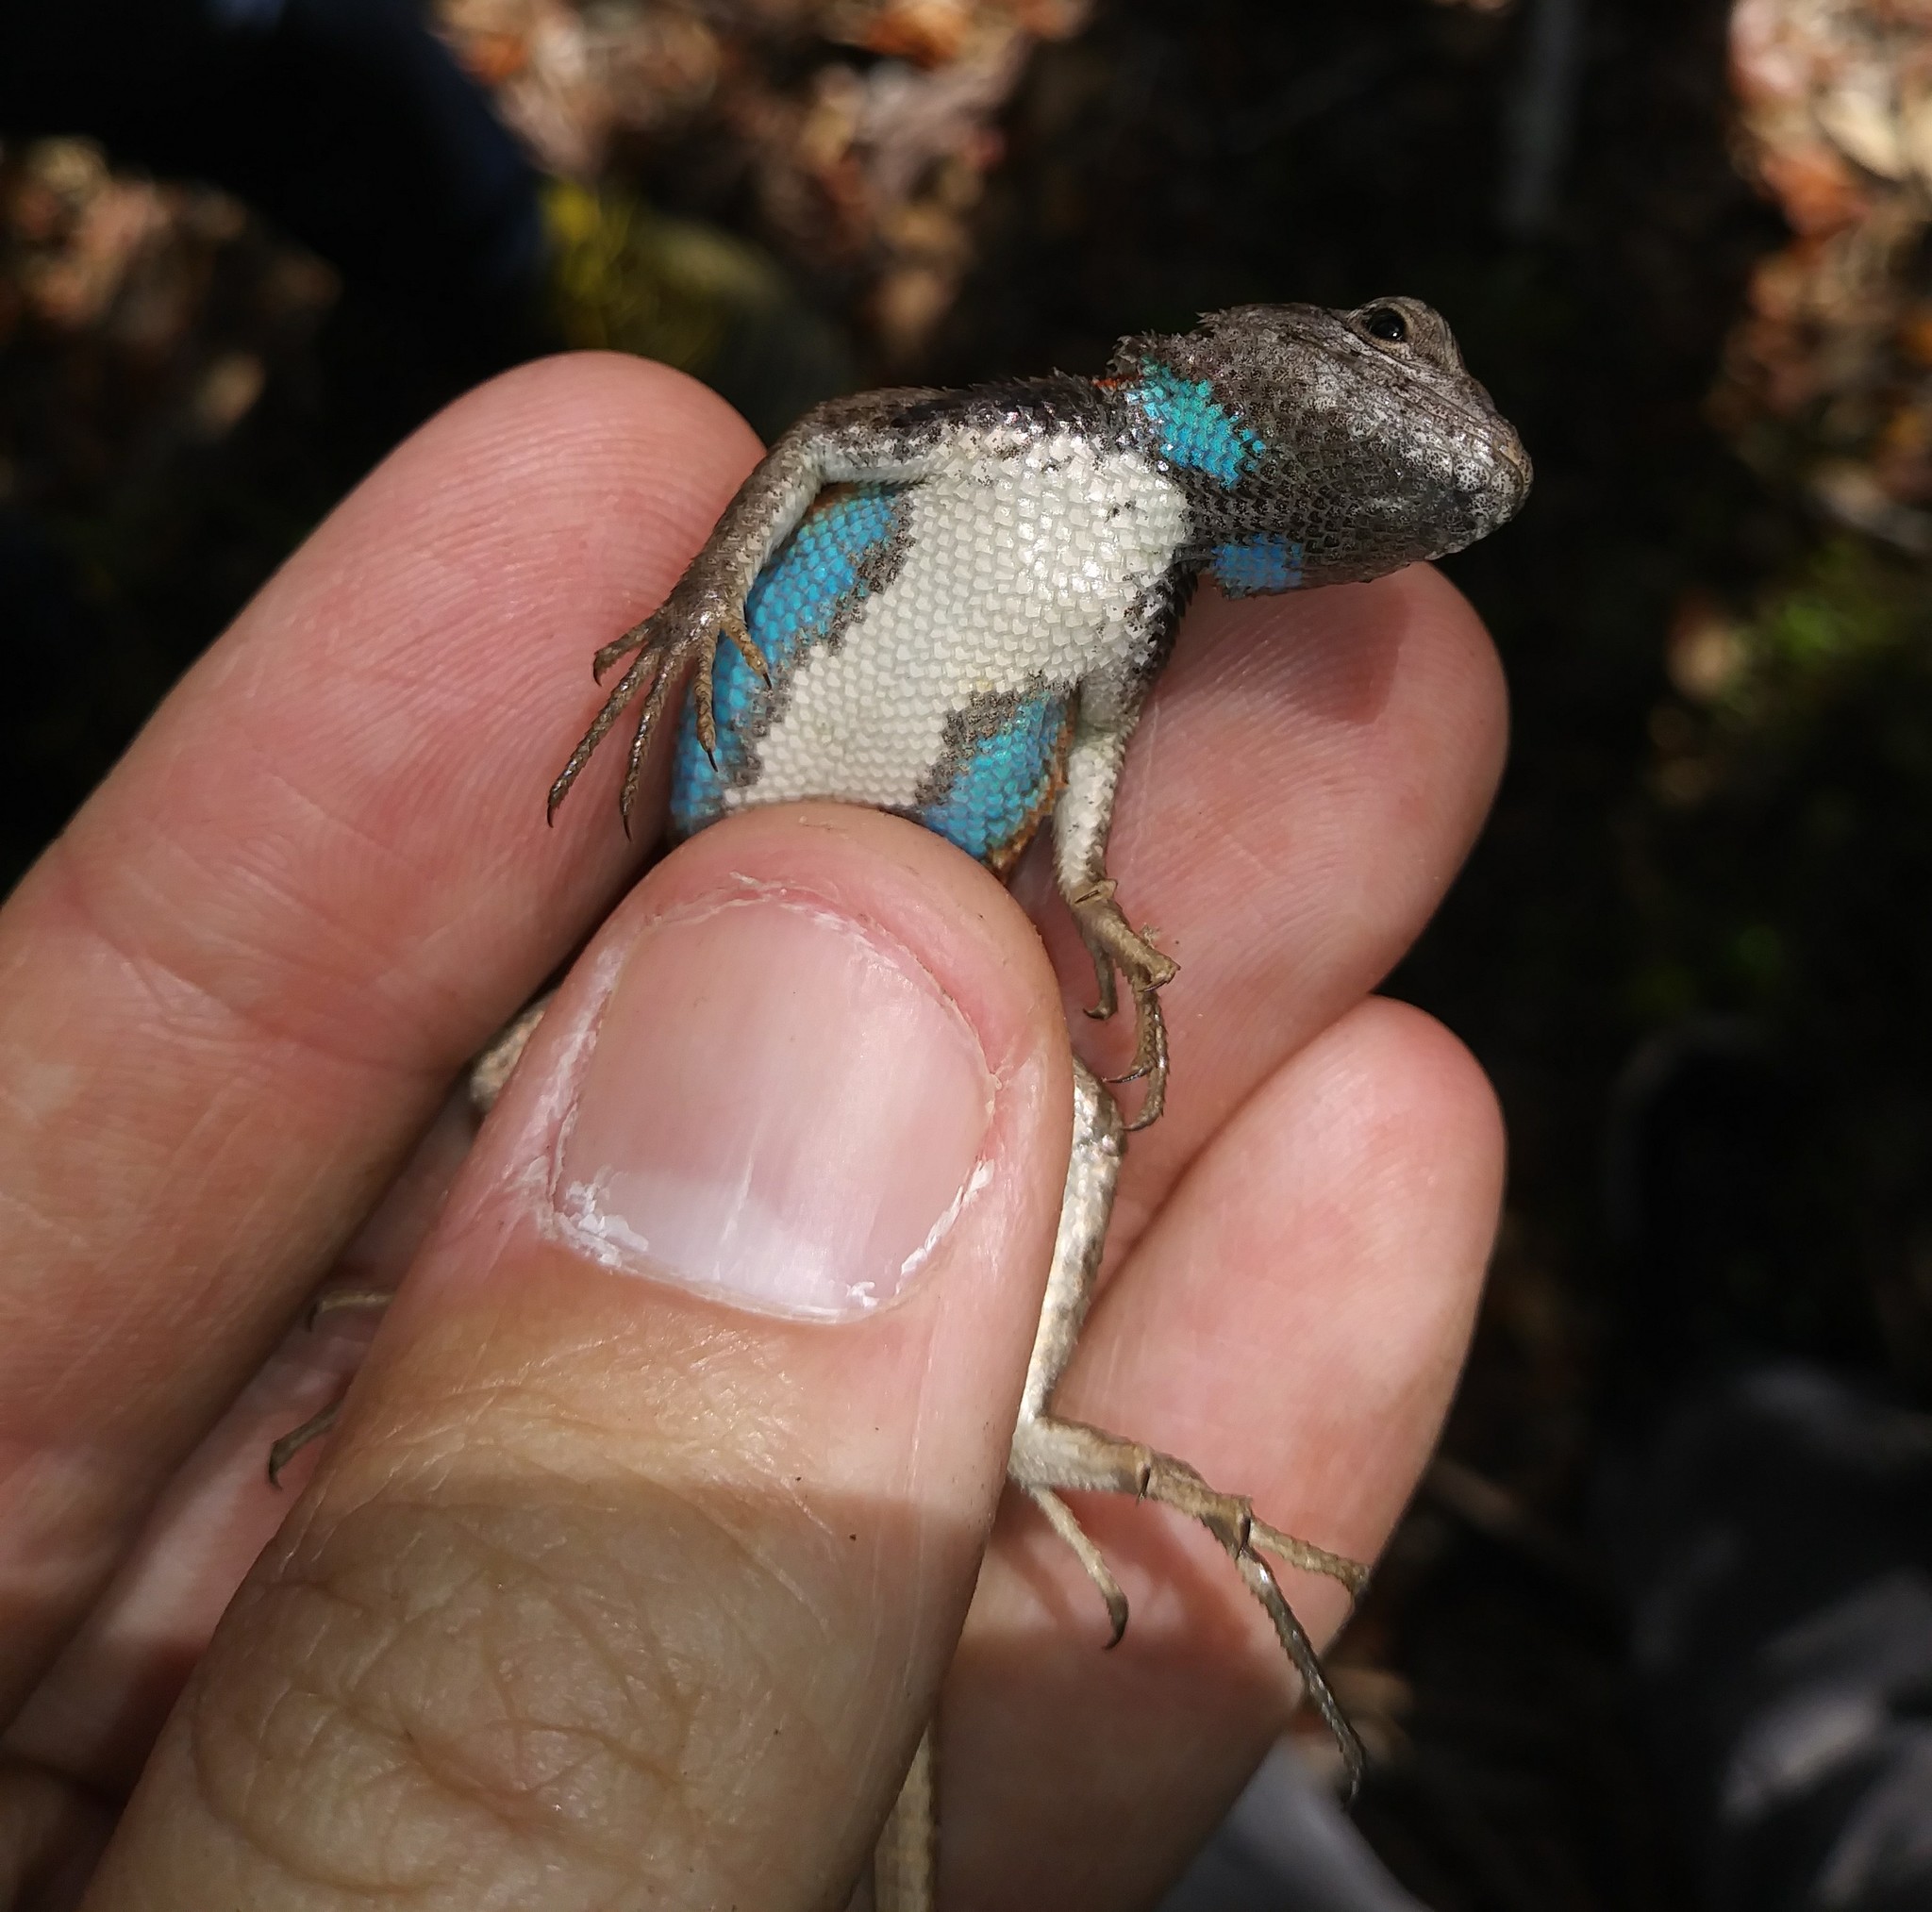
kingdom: Animalia
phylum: Chordata
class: Squamata
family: Phrynosomatidae
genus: Sceloporus
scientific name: Sceloporus woodi
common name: Florida scrub lizard
